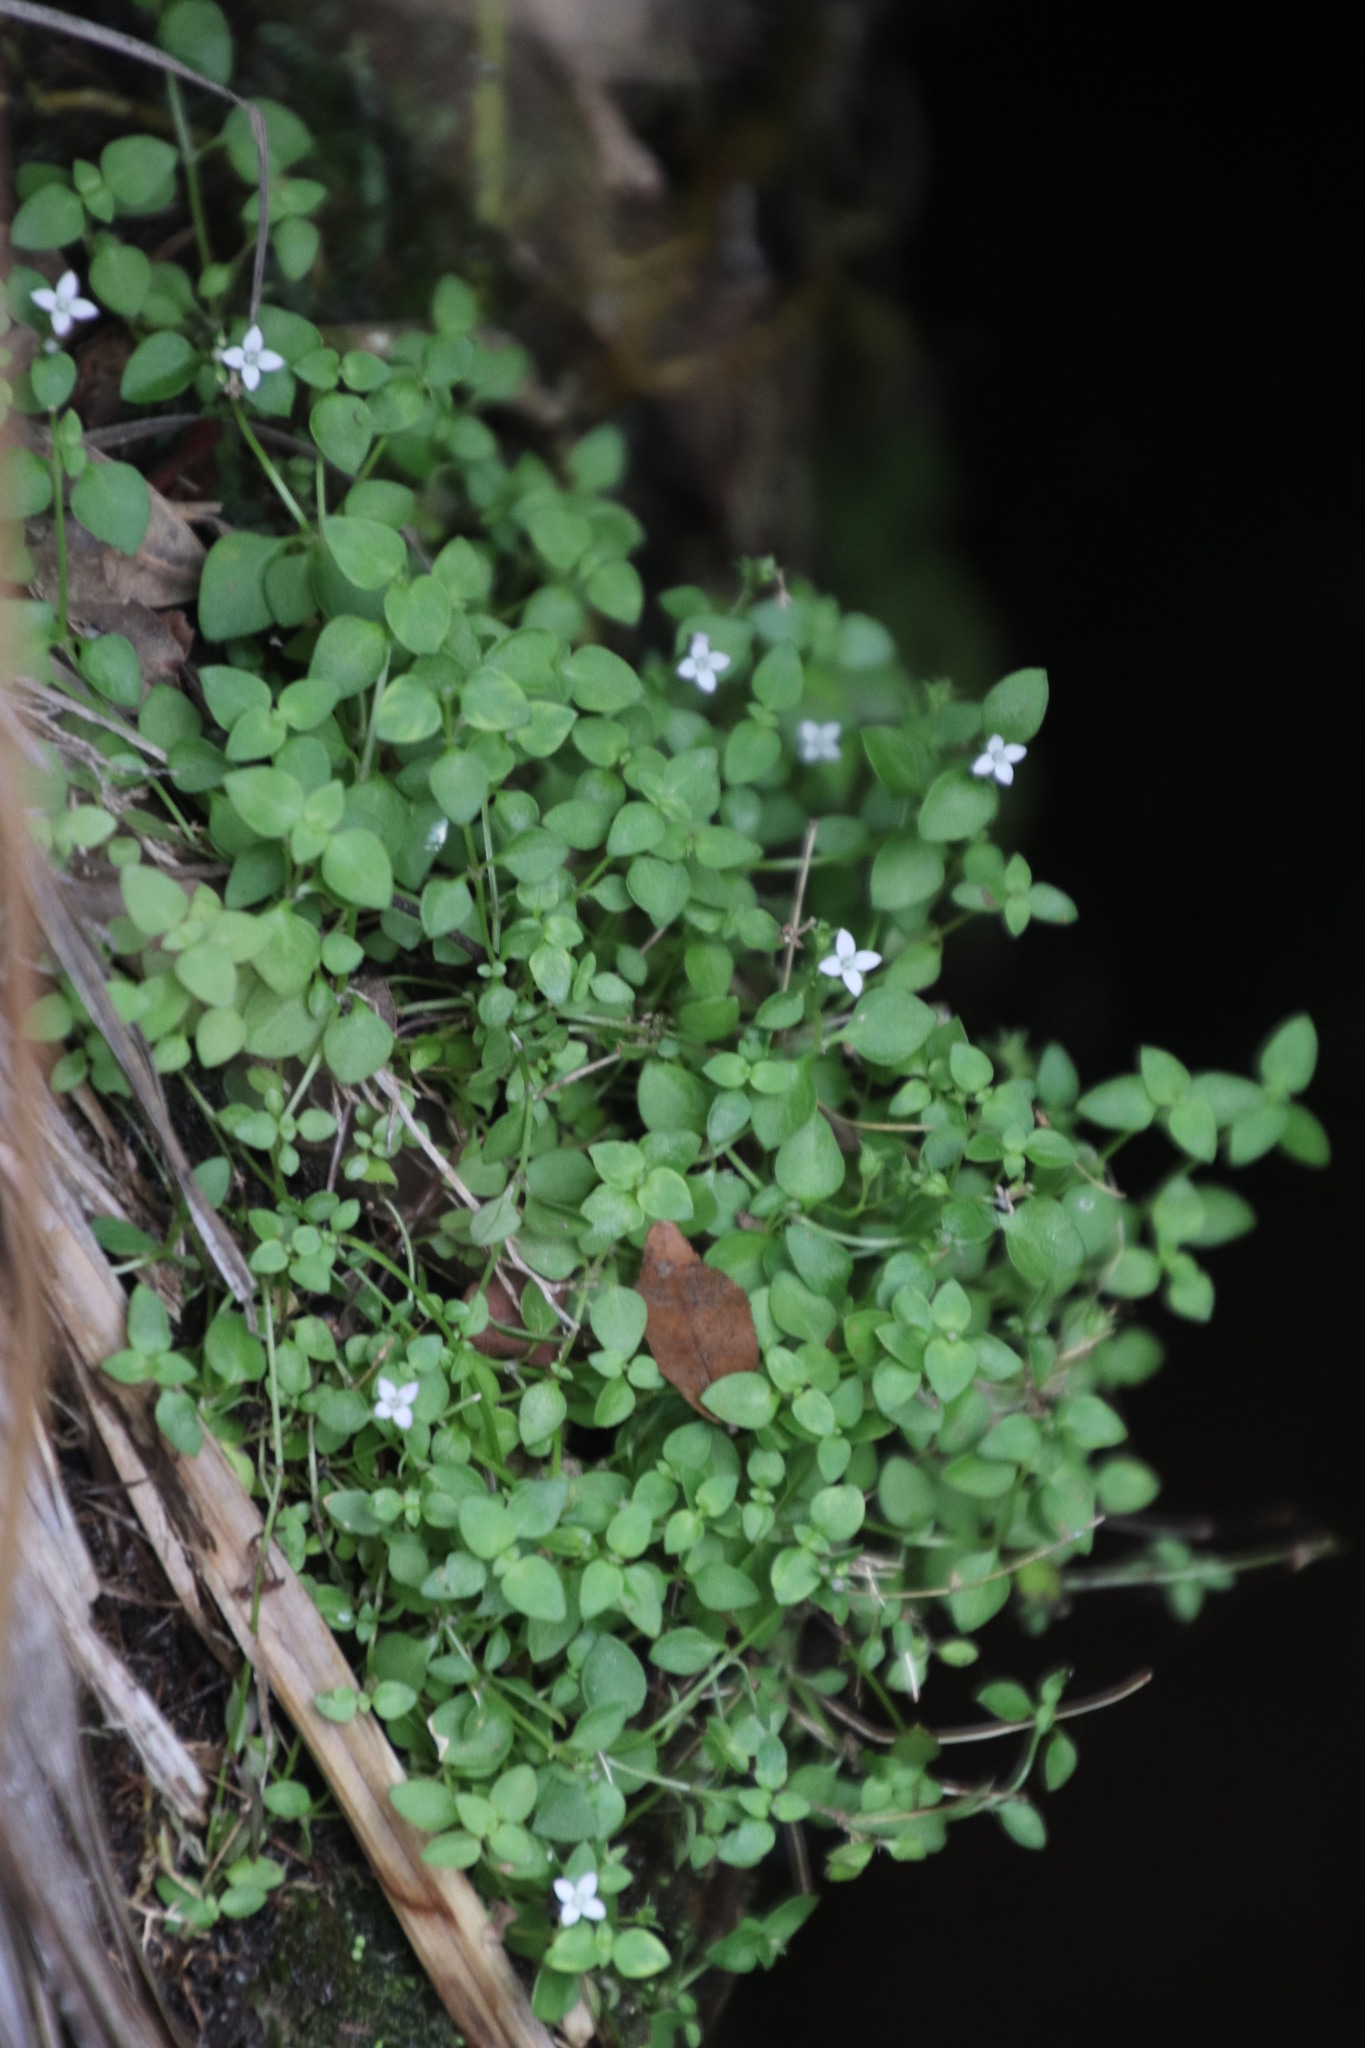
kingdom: Plantae
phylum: Tracheophyta
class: Magnoliopsida
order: Gentianales
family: Rubiaceae
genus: Oldenlandia
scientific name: Oldenlandia tenella
